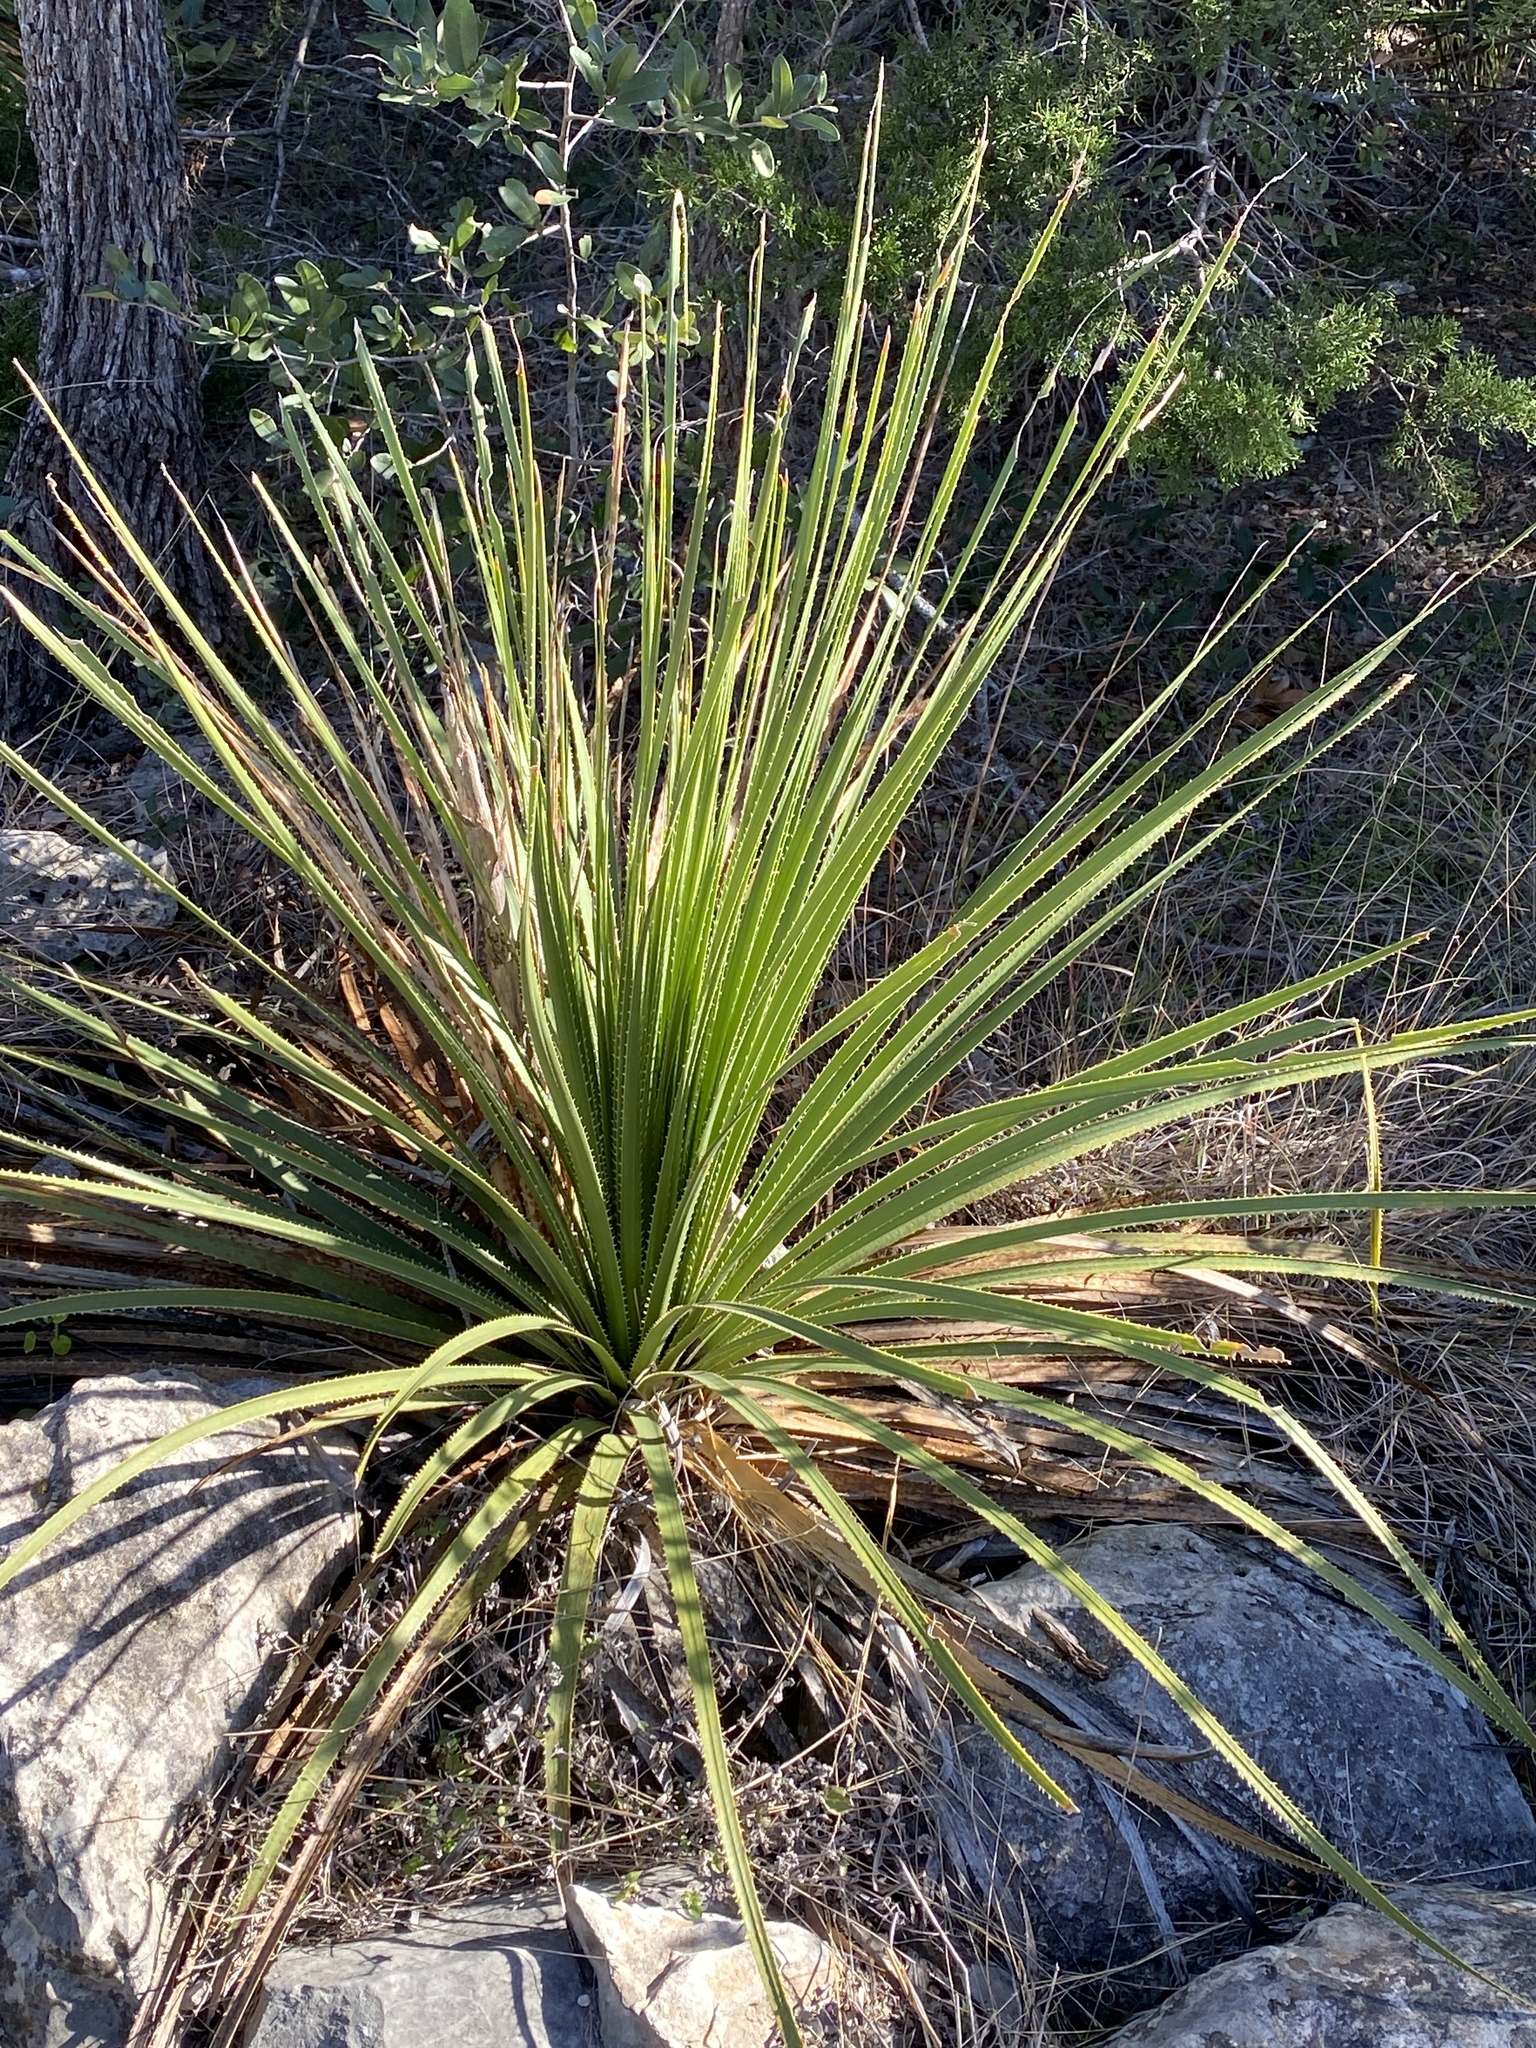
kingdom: Plantae
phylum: Tracheophyta
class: Liliopsida
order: Asparagales
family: Asparagaceae
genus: Dasylirion
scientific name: Dasylirion texanum
